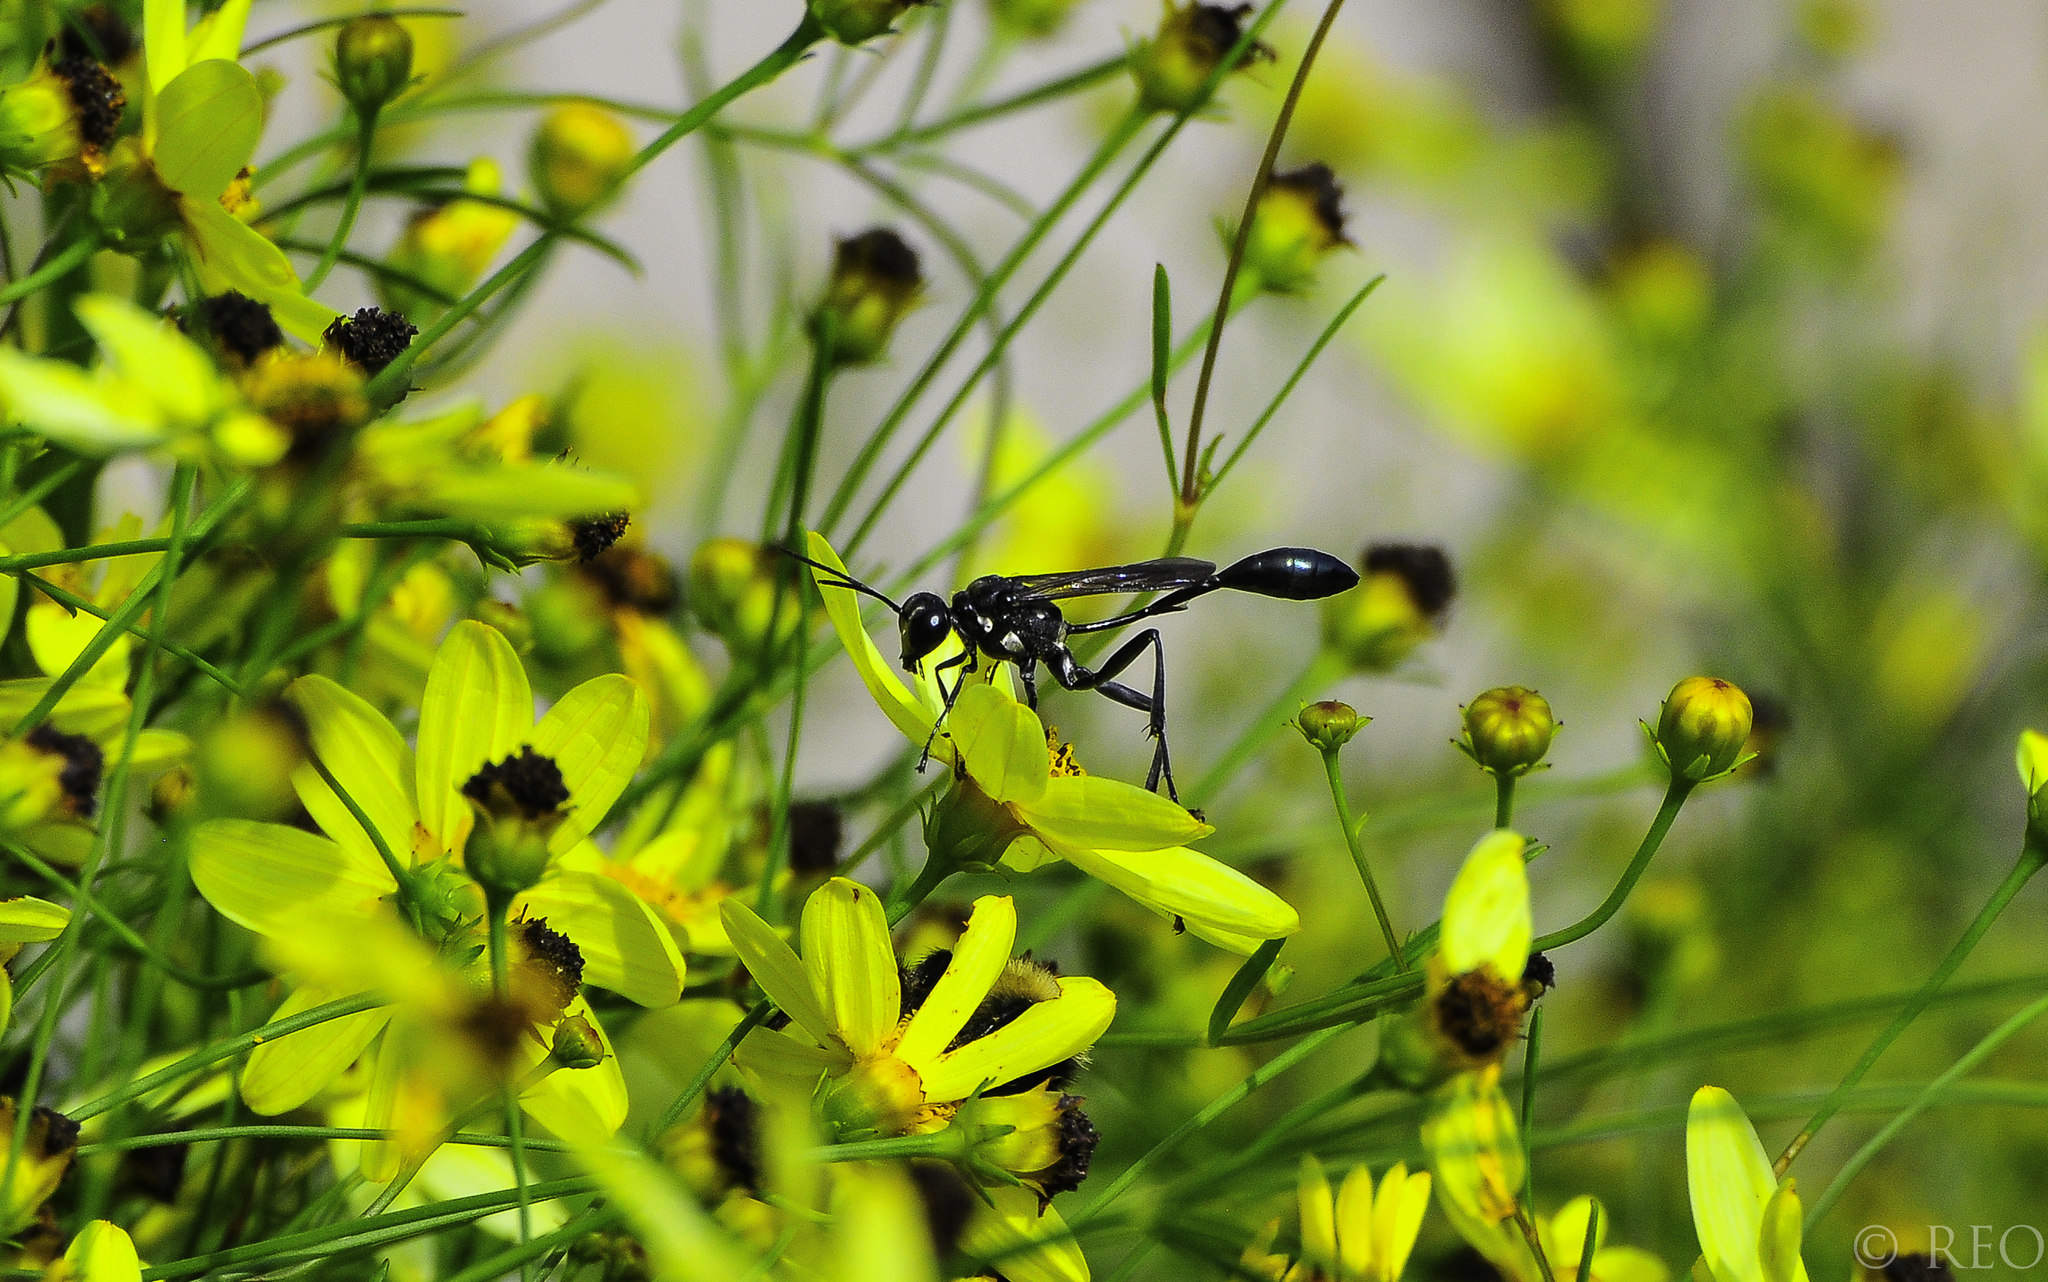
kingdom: Animalia
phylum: Arthropoda
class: Insecta
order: Hymenoptera
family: Sphecidae
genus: Eremnophila
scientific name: Eremnophila aureonotata
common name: Gold-marked thread-waisted wasp
